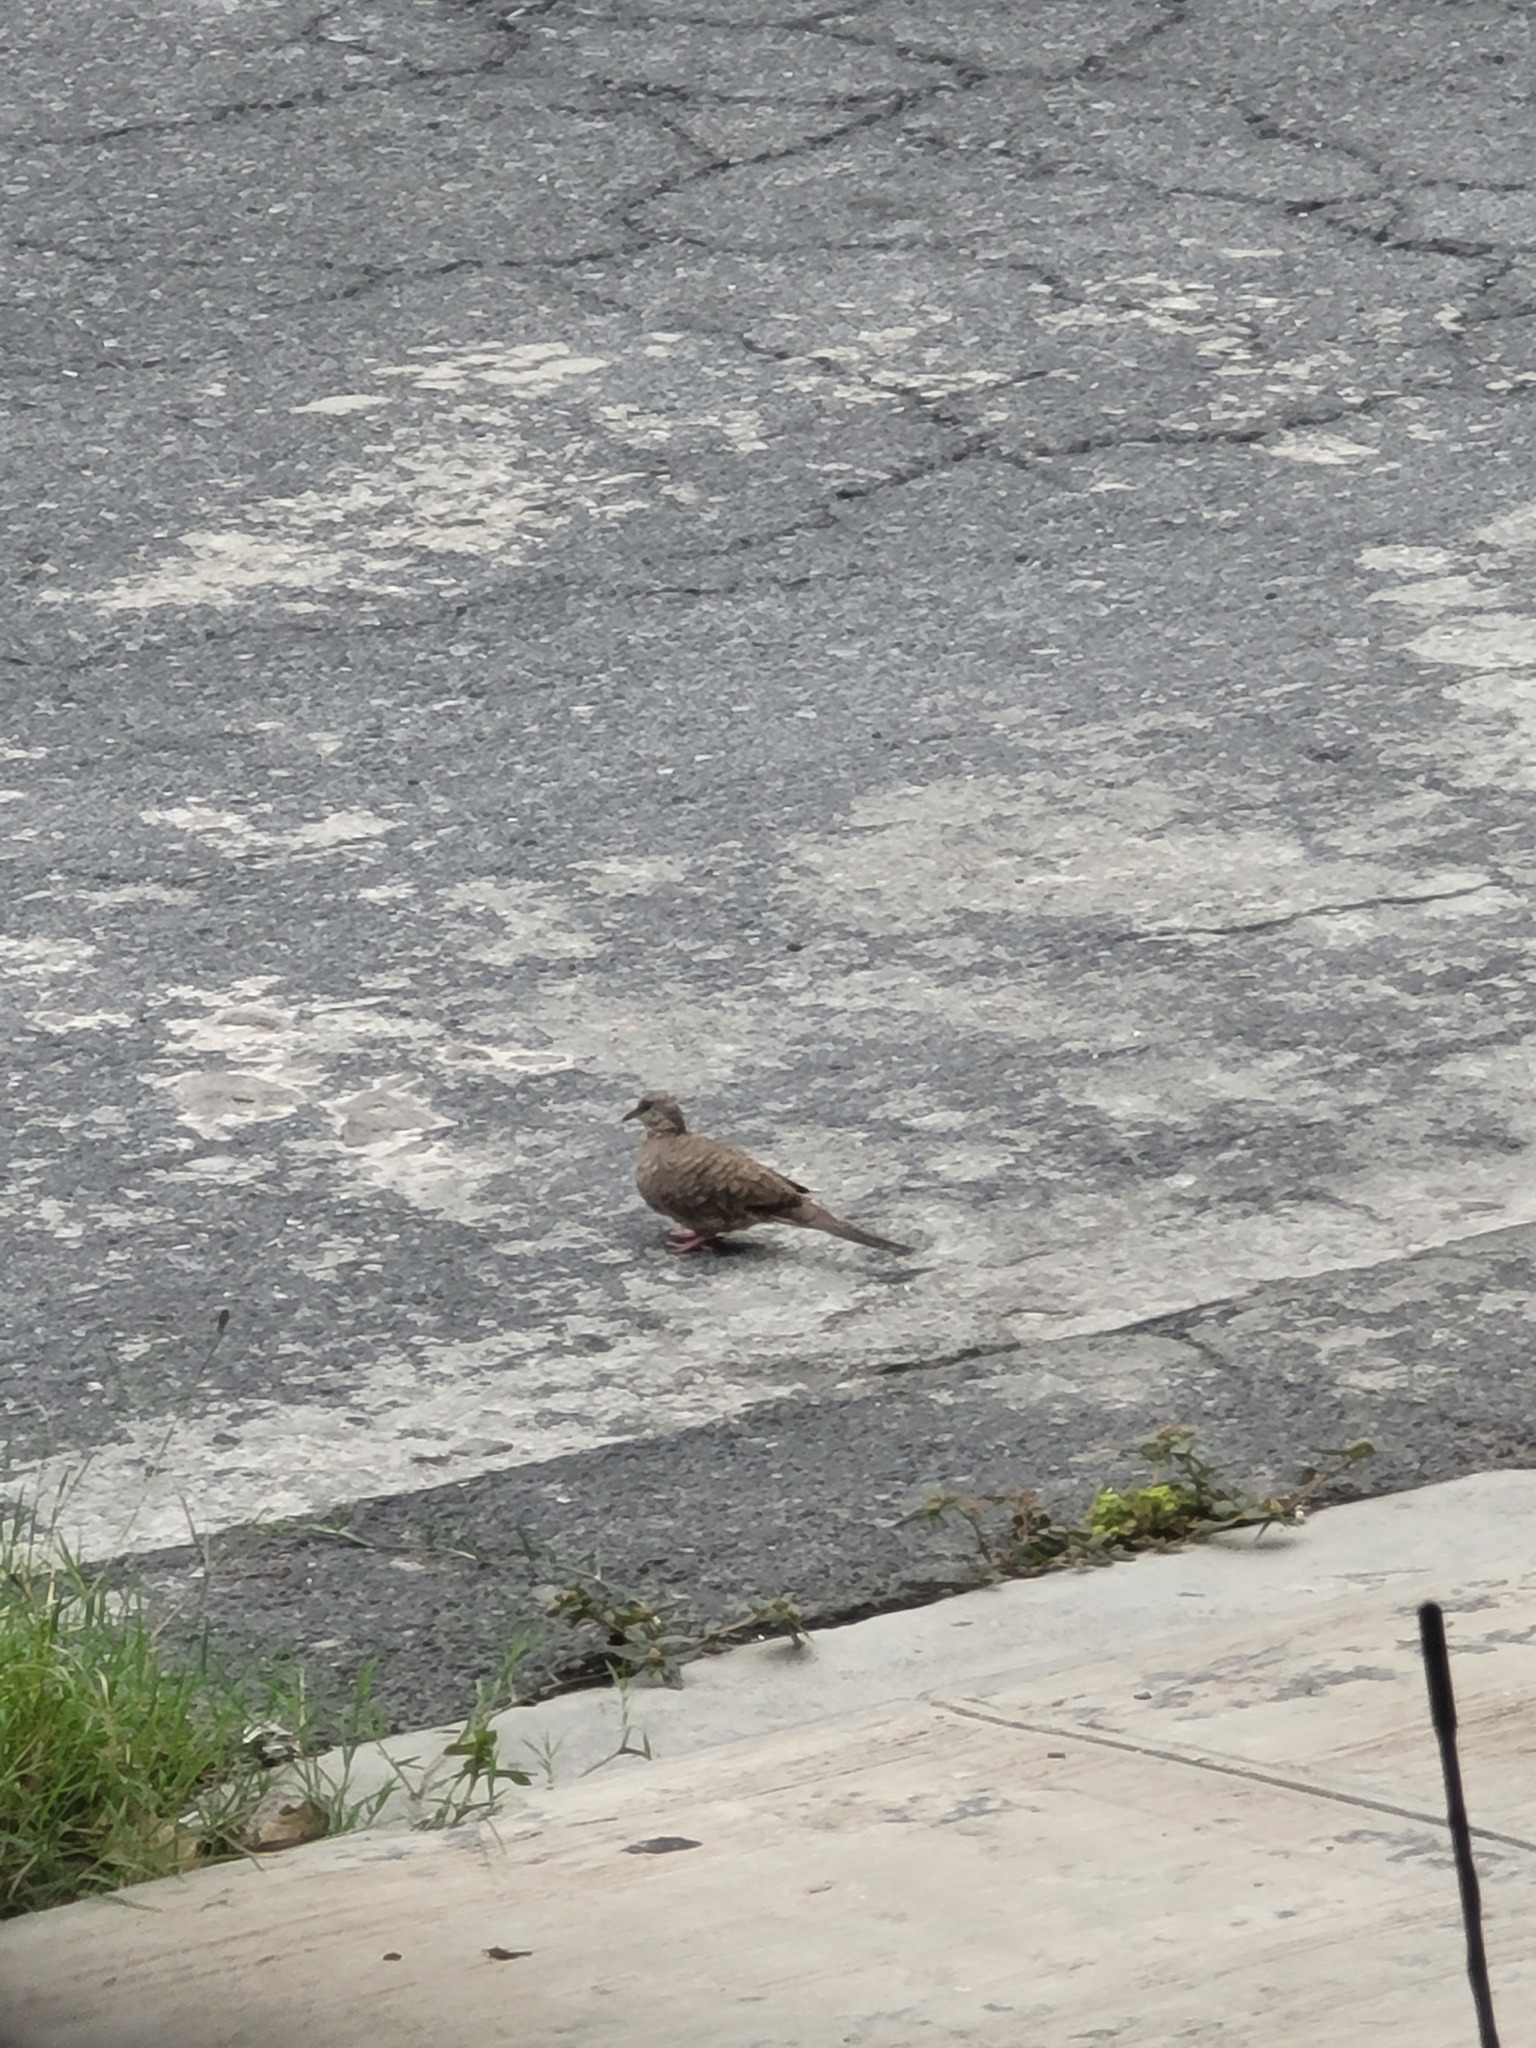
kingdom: Animalia
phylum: Chordata
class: Aves
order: Columbiformes
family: Columbidae
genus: Columbina
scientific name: Columbina inca
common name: Inca dove
